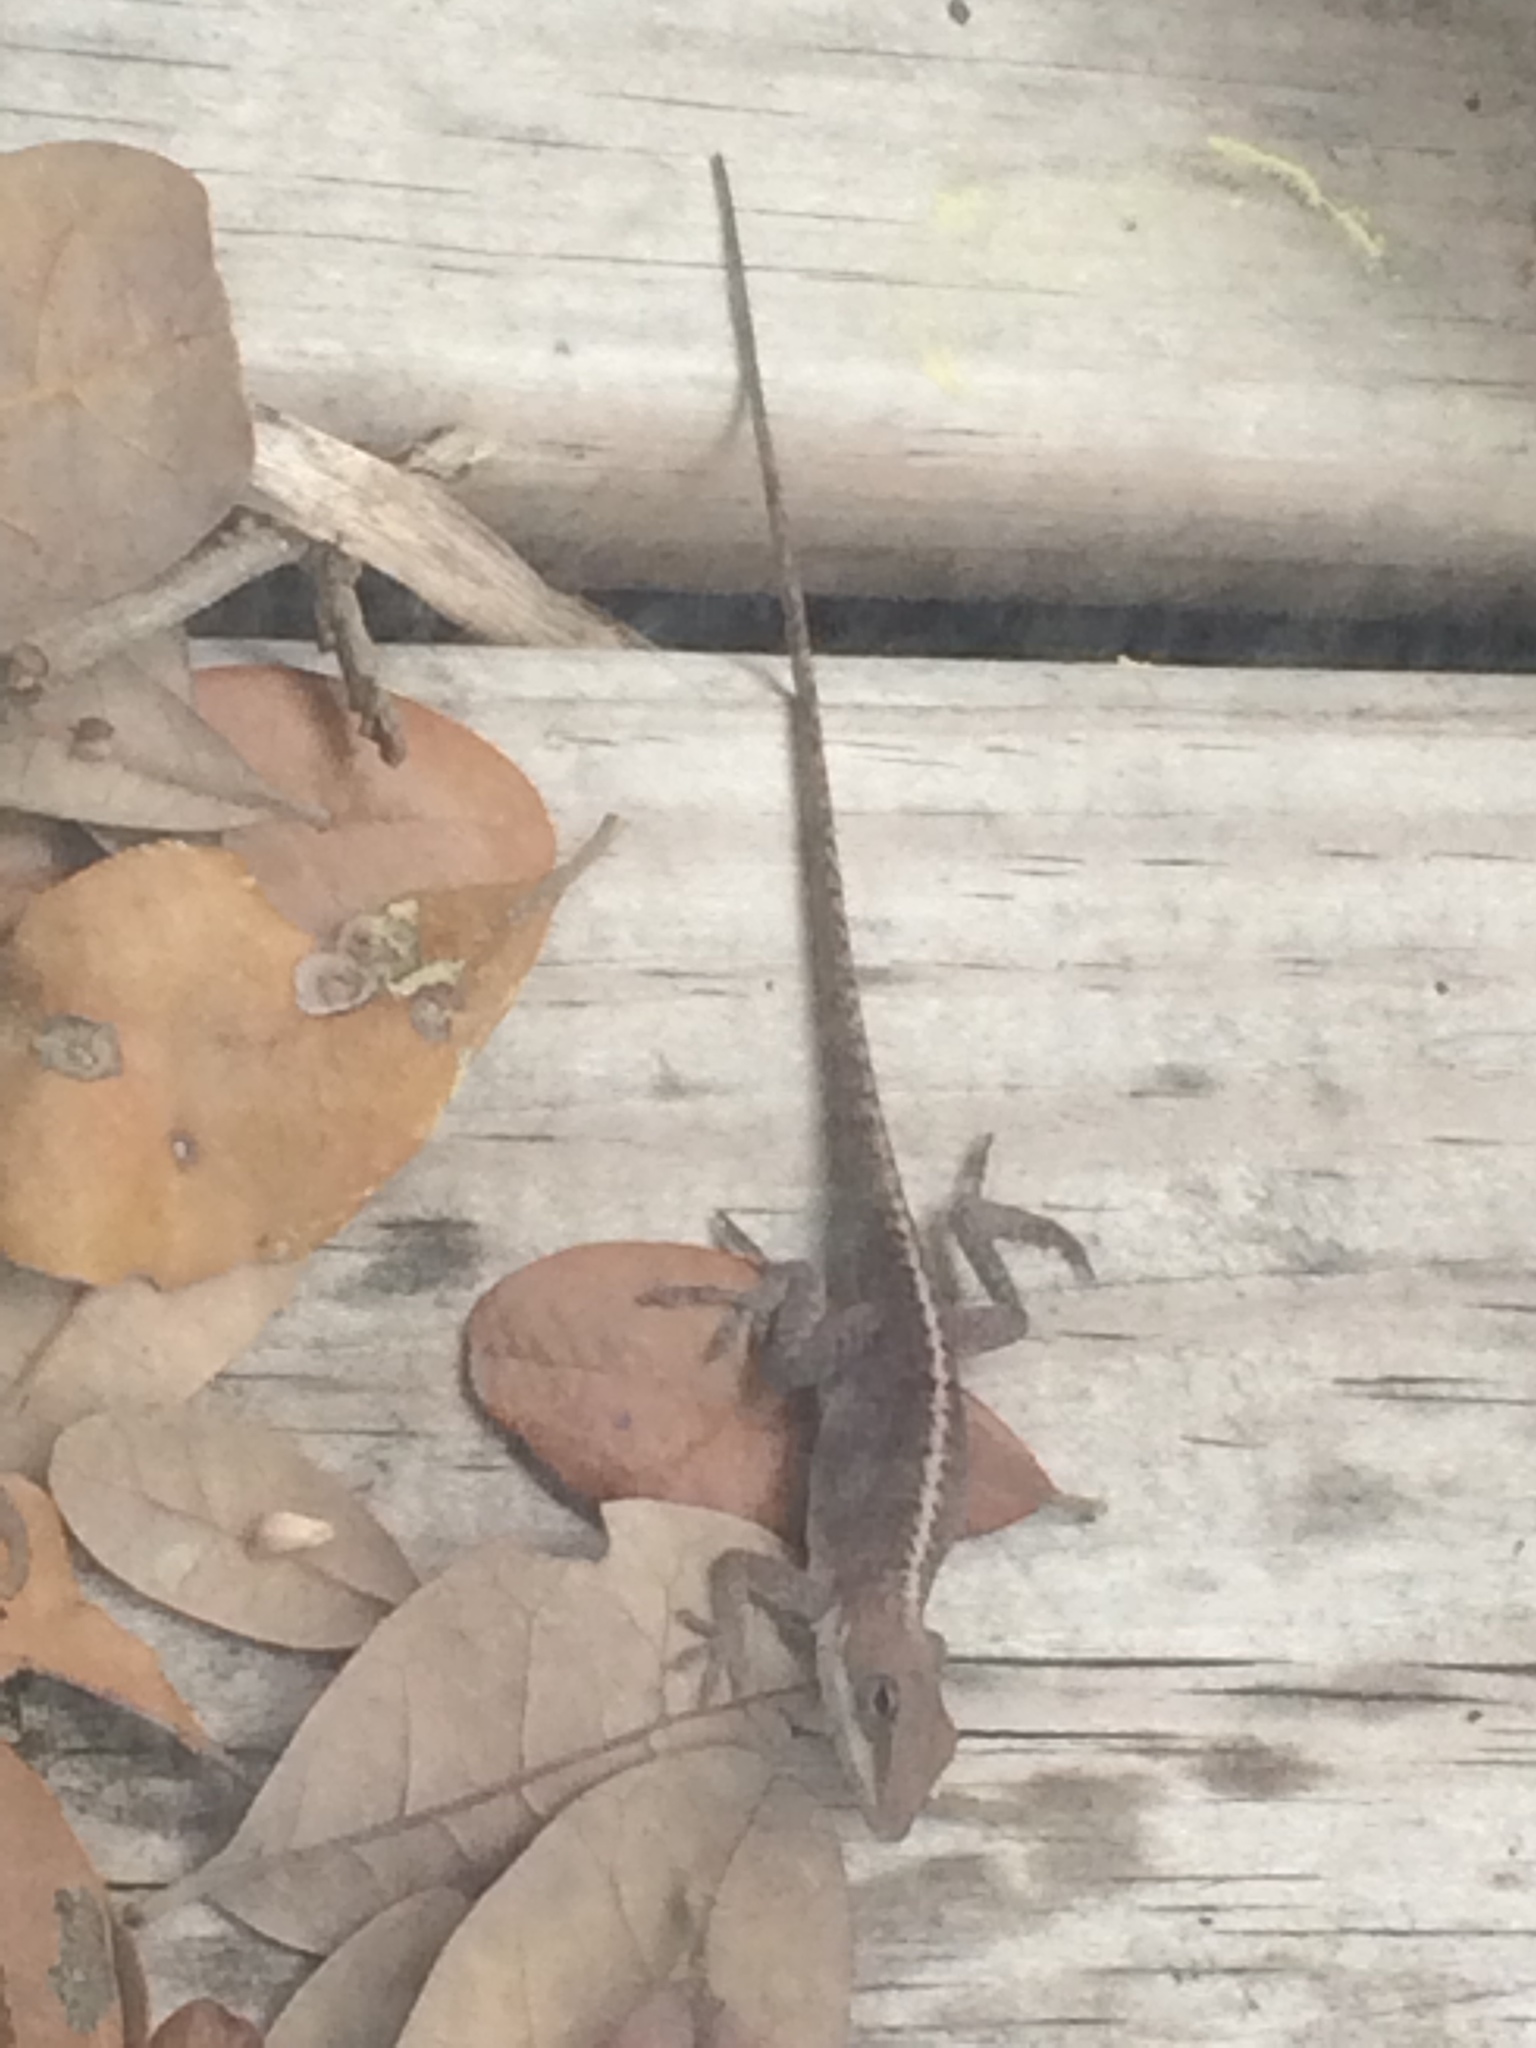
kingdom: Animalia
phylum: Chordata
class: Squamata
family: Dactyloidae
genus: Anolis
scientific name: Anolis carolinensis
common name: Green anole
